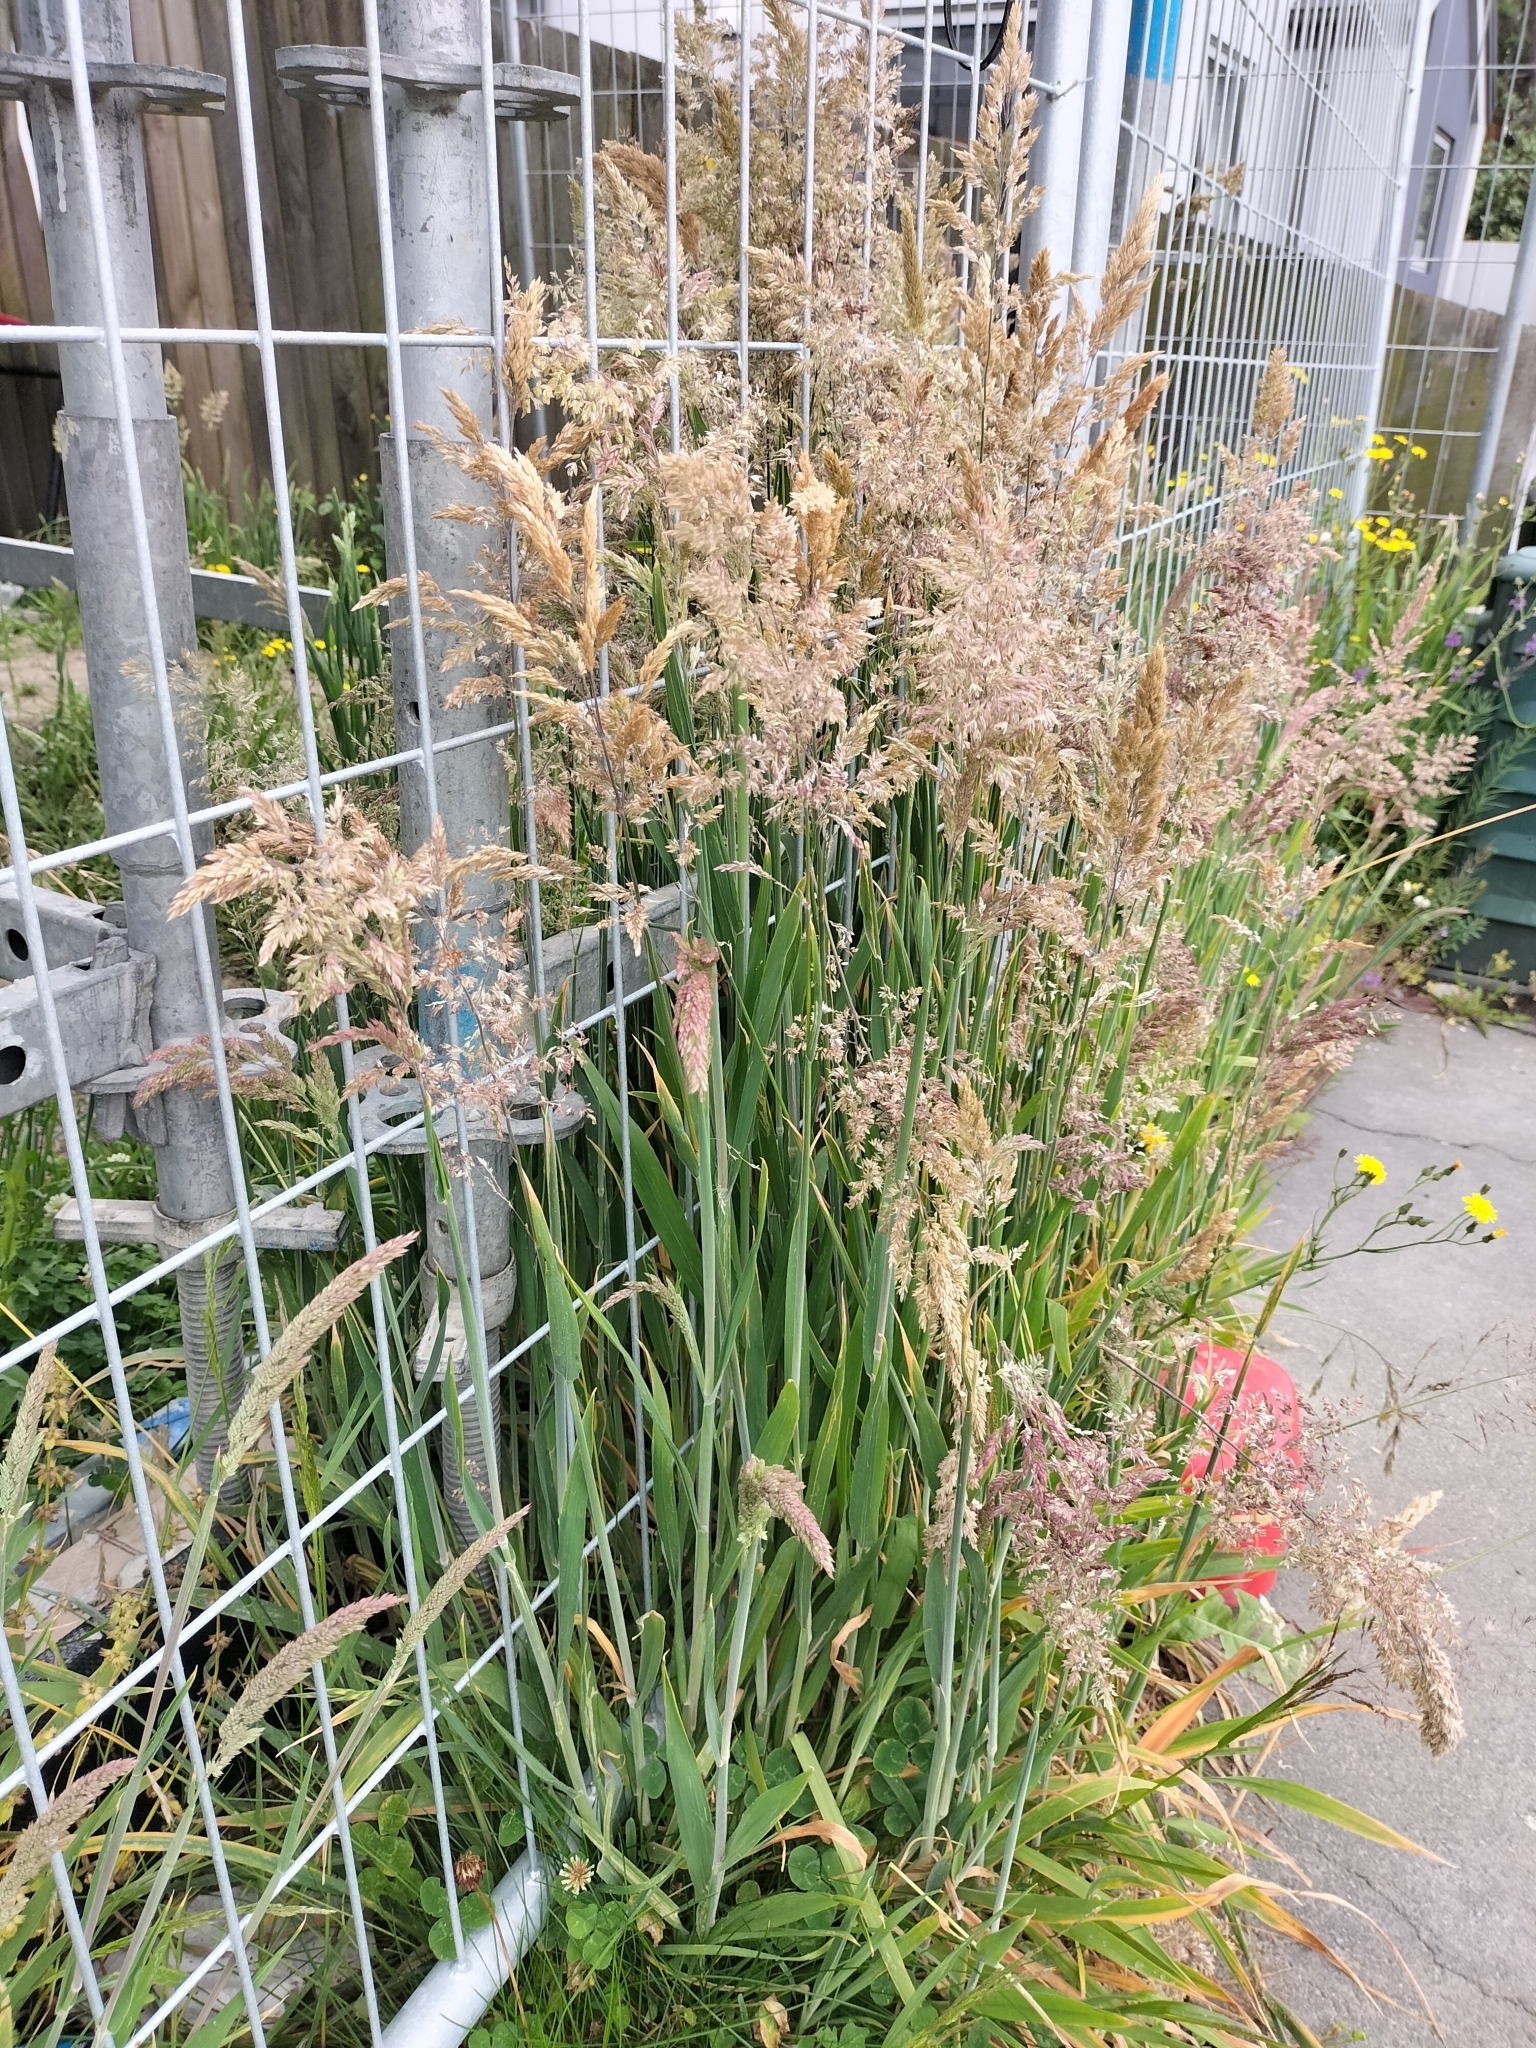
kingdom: Plantae
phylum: Tracheophyta
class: Liliopsida
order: Poales
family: Poaceae
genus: Holcus
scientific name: Holcus lanatus
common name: Yorkshire-fog
